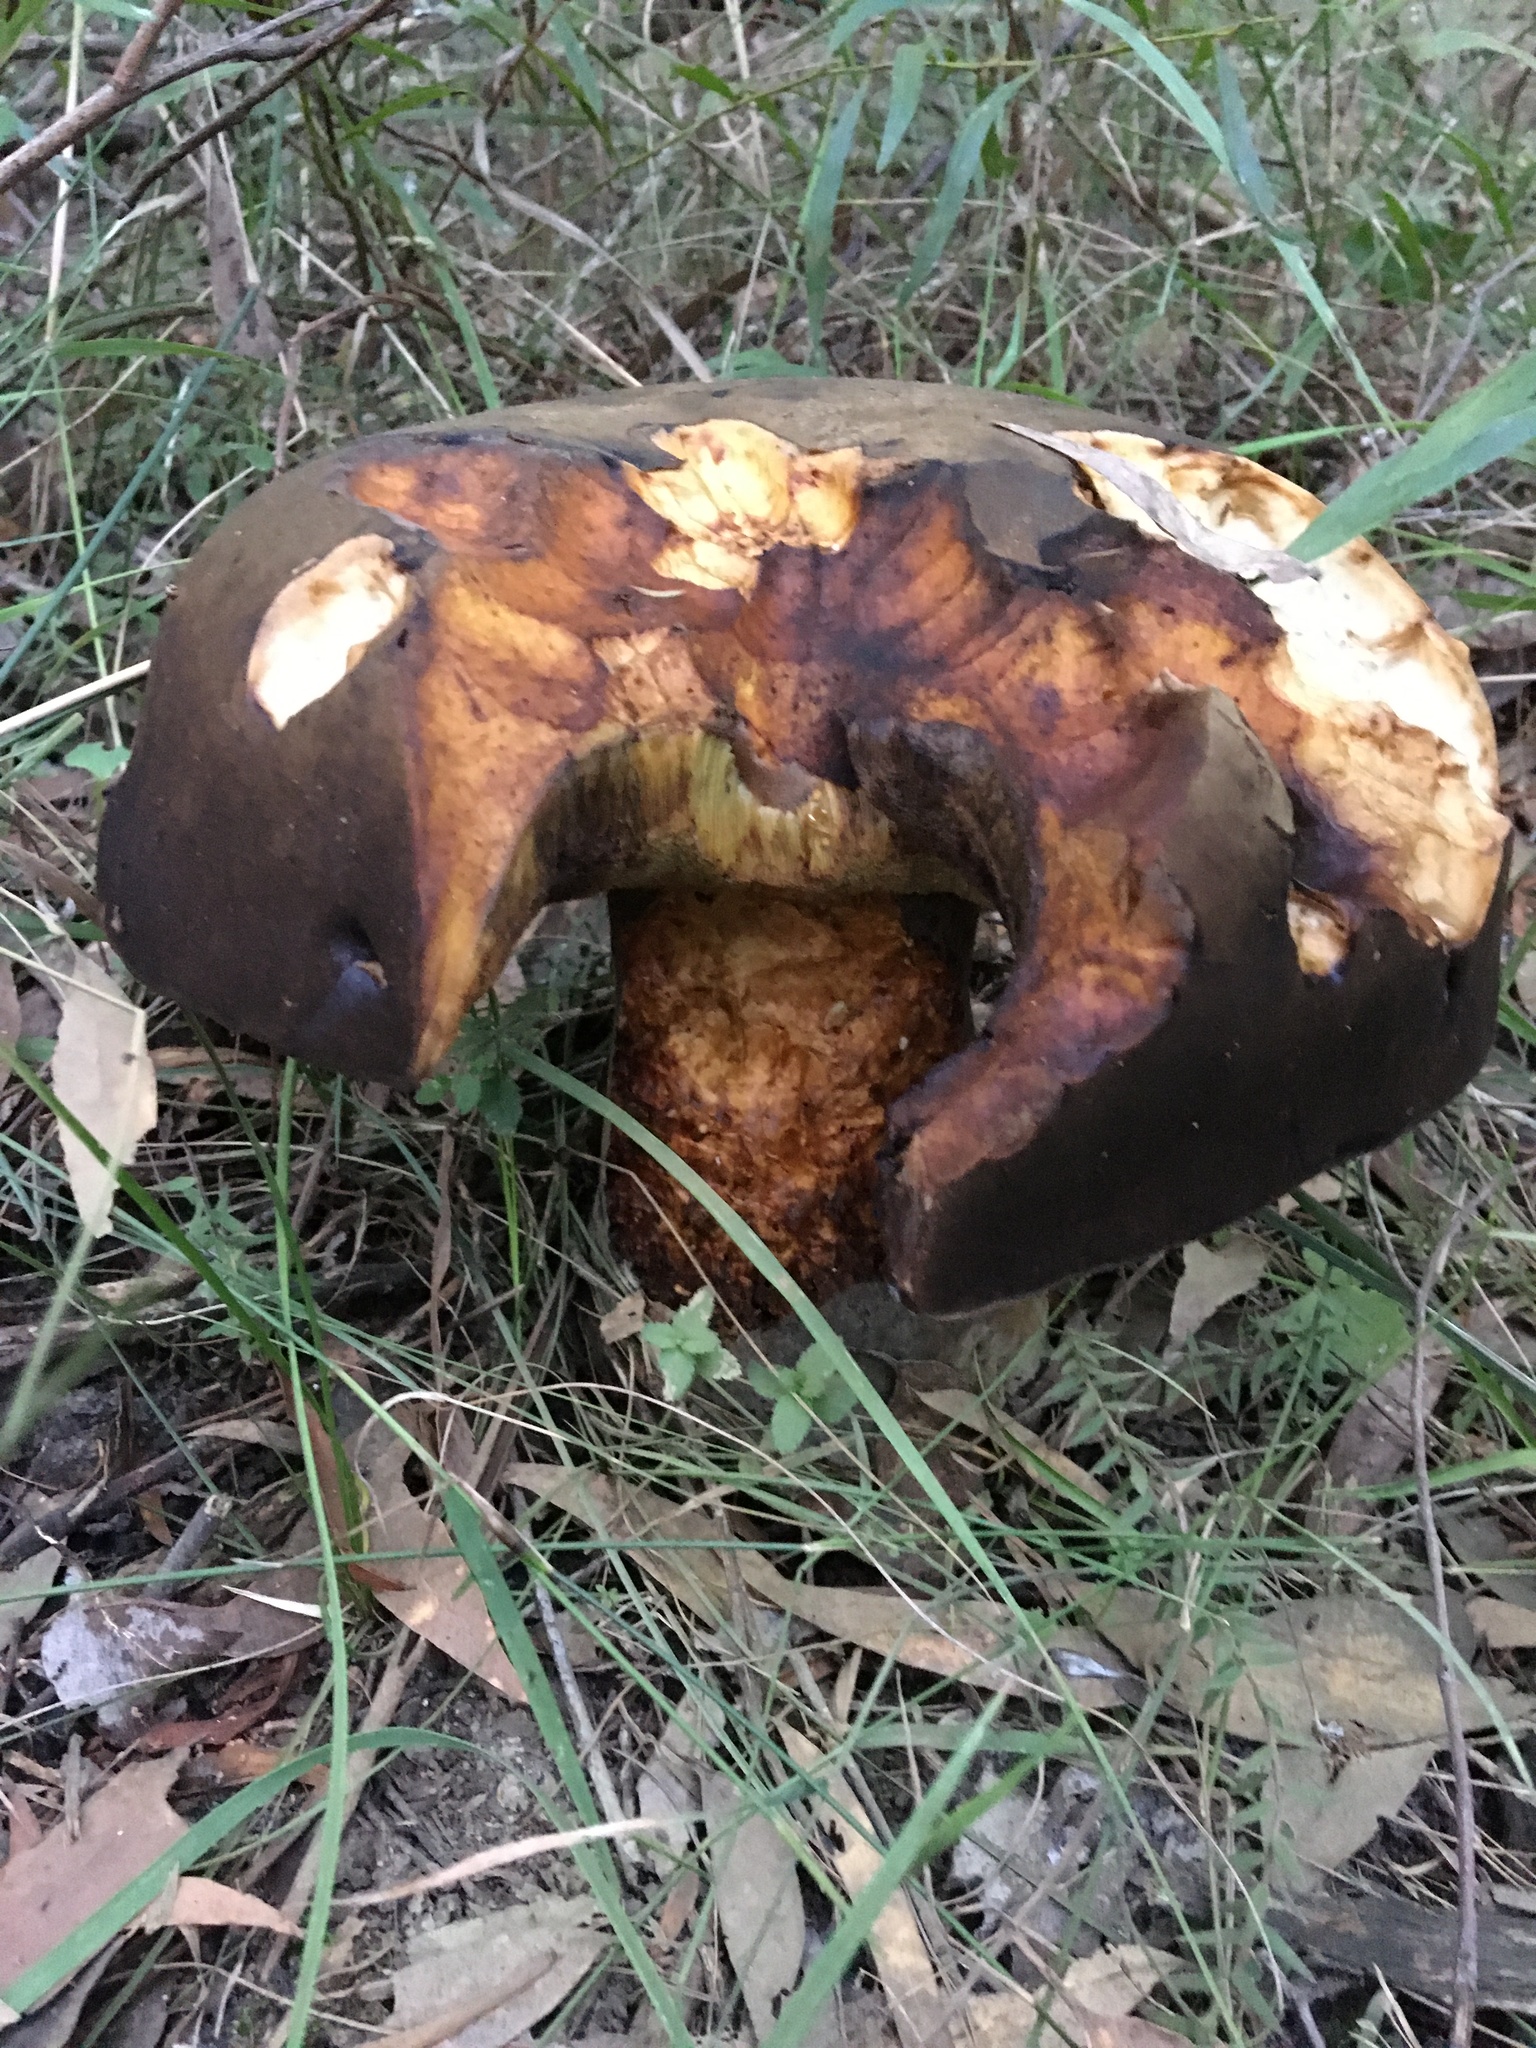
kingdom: Fungi
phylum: Basidiomycota
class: Agaricomycetes
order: Boletales
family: Boletinellaceae
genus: Phlebopus
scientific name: Phlebopus marginatus
